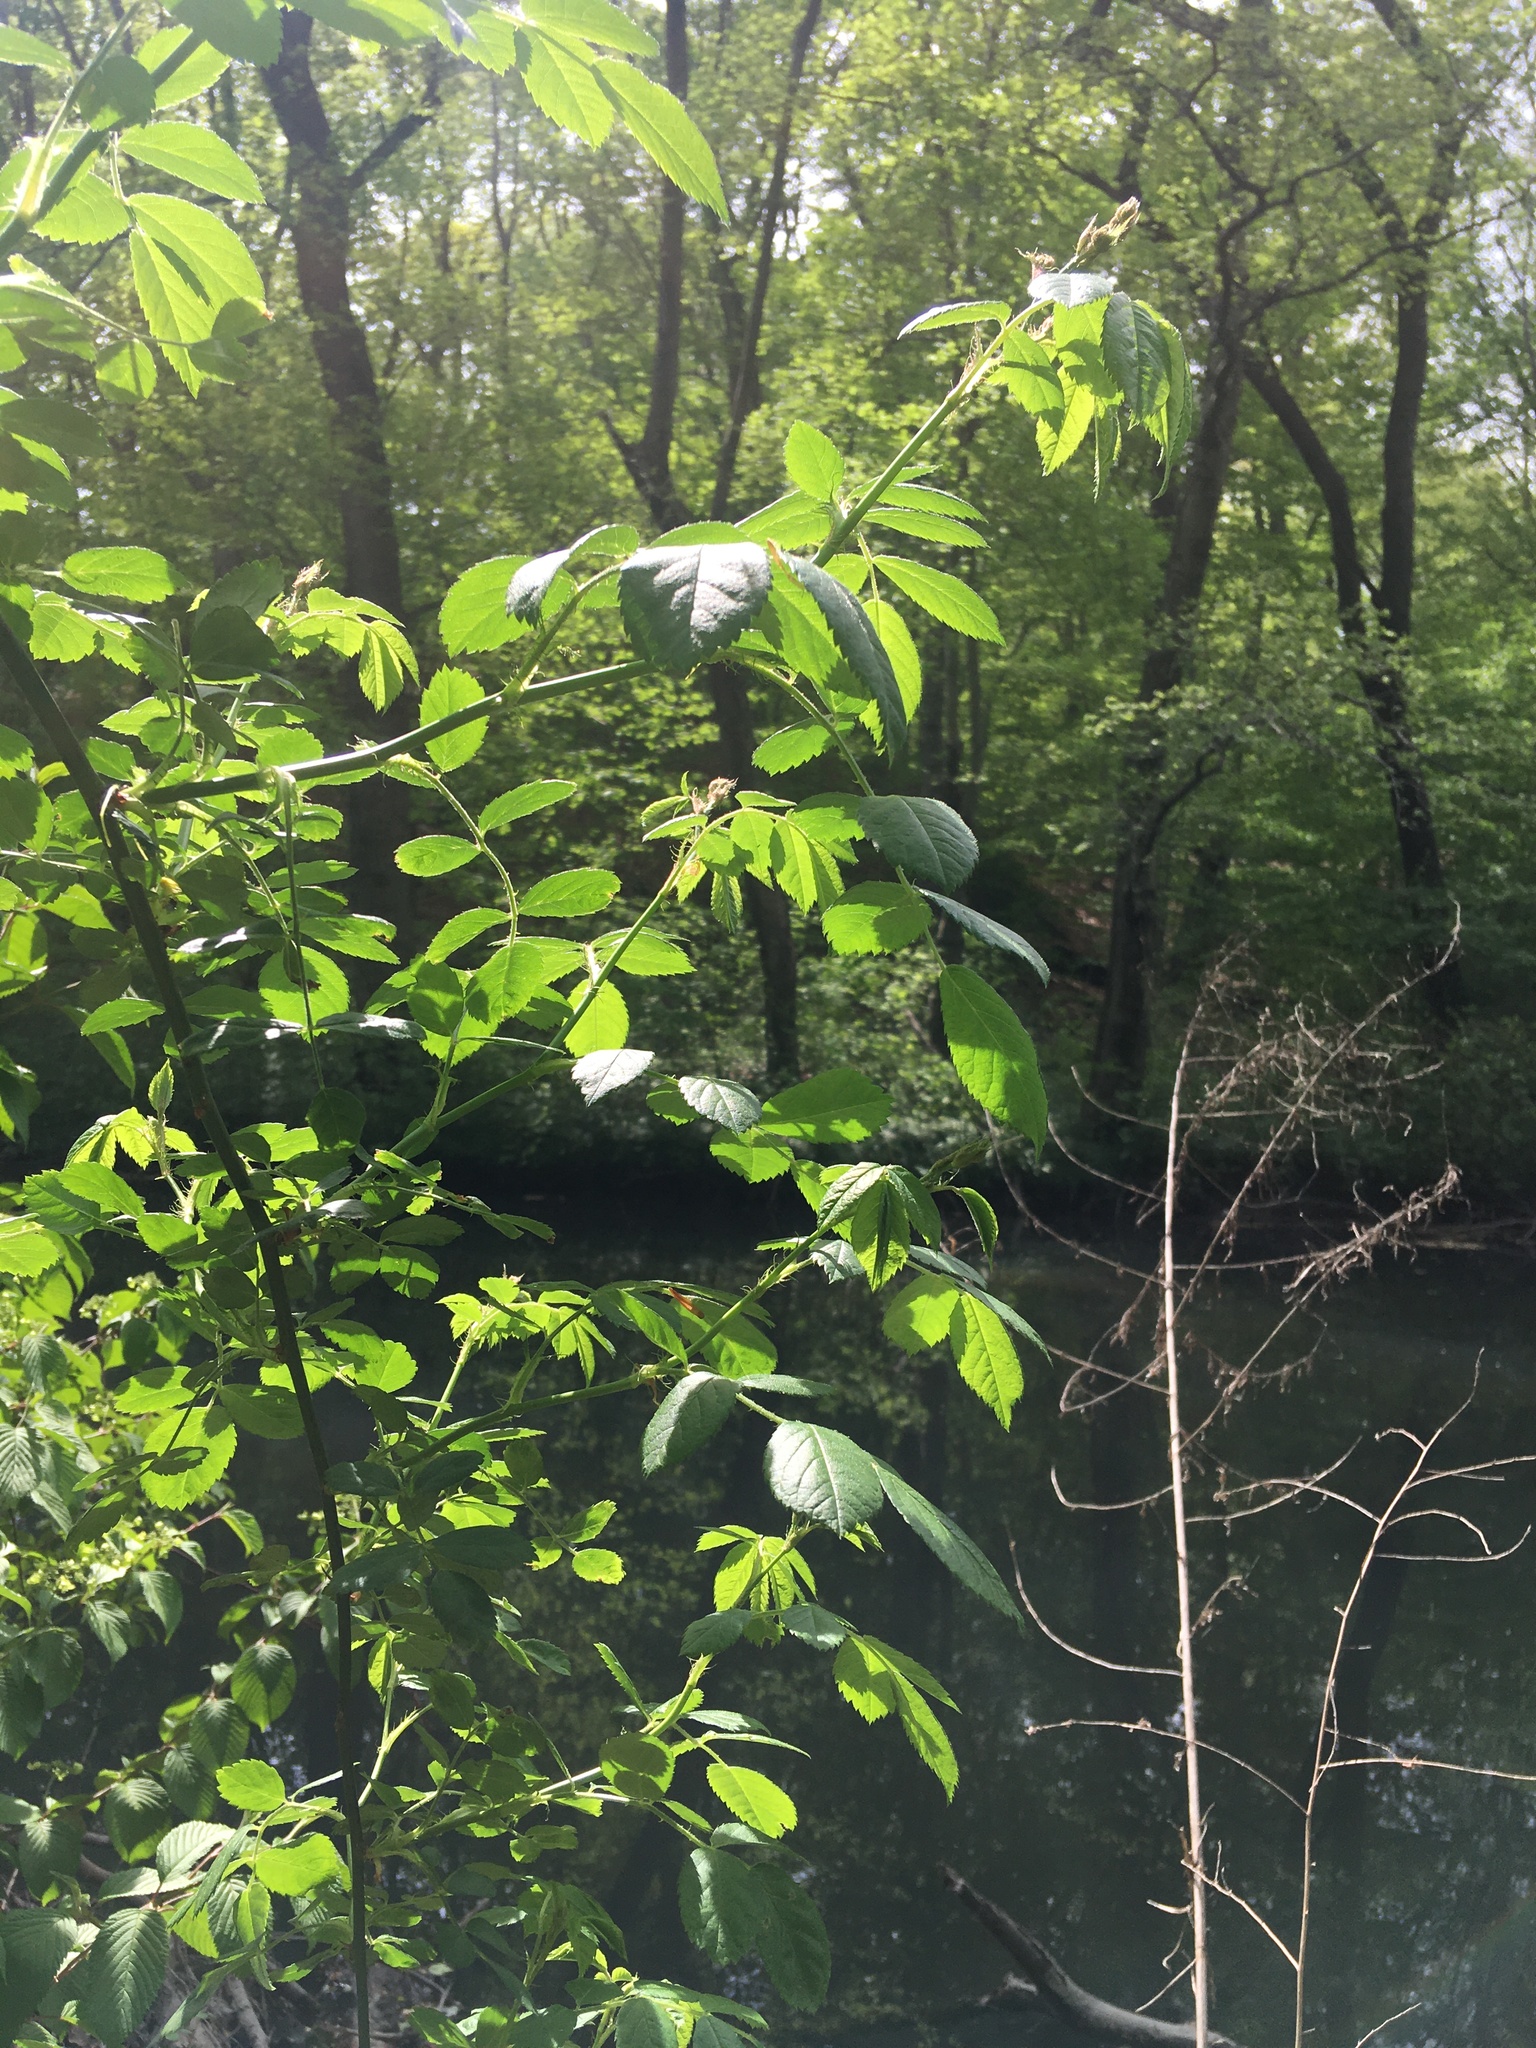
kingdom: Plantae
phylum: Tracheophyta
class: Magnoliopsida
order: Rosales
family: Rosaceae
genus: Rosa
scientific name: Rosa multiflora
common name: Multiflora rose
